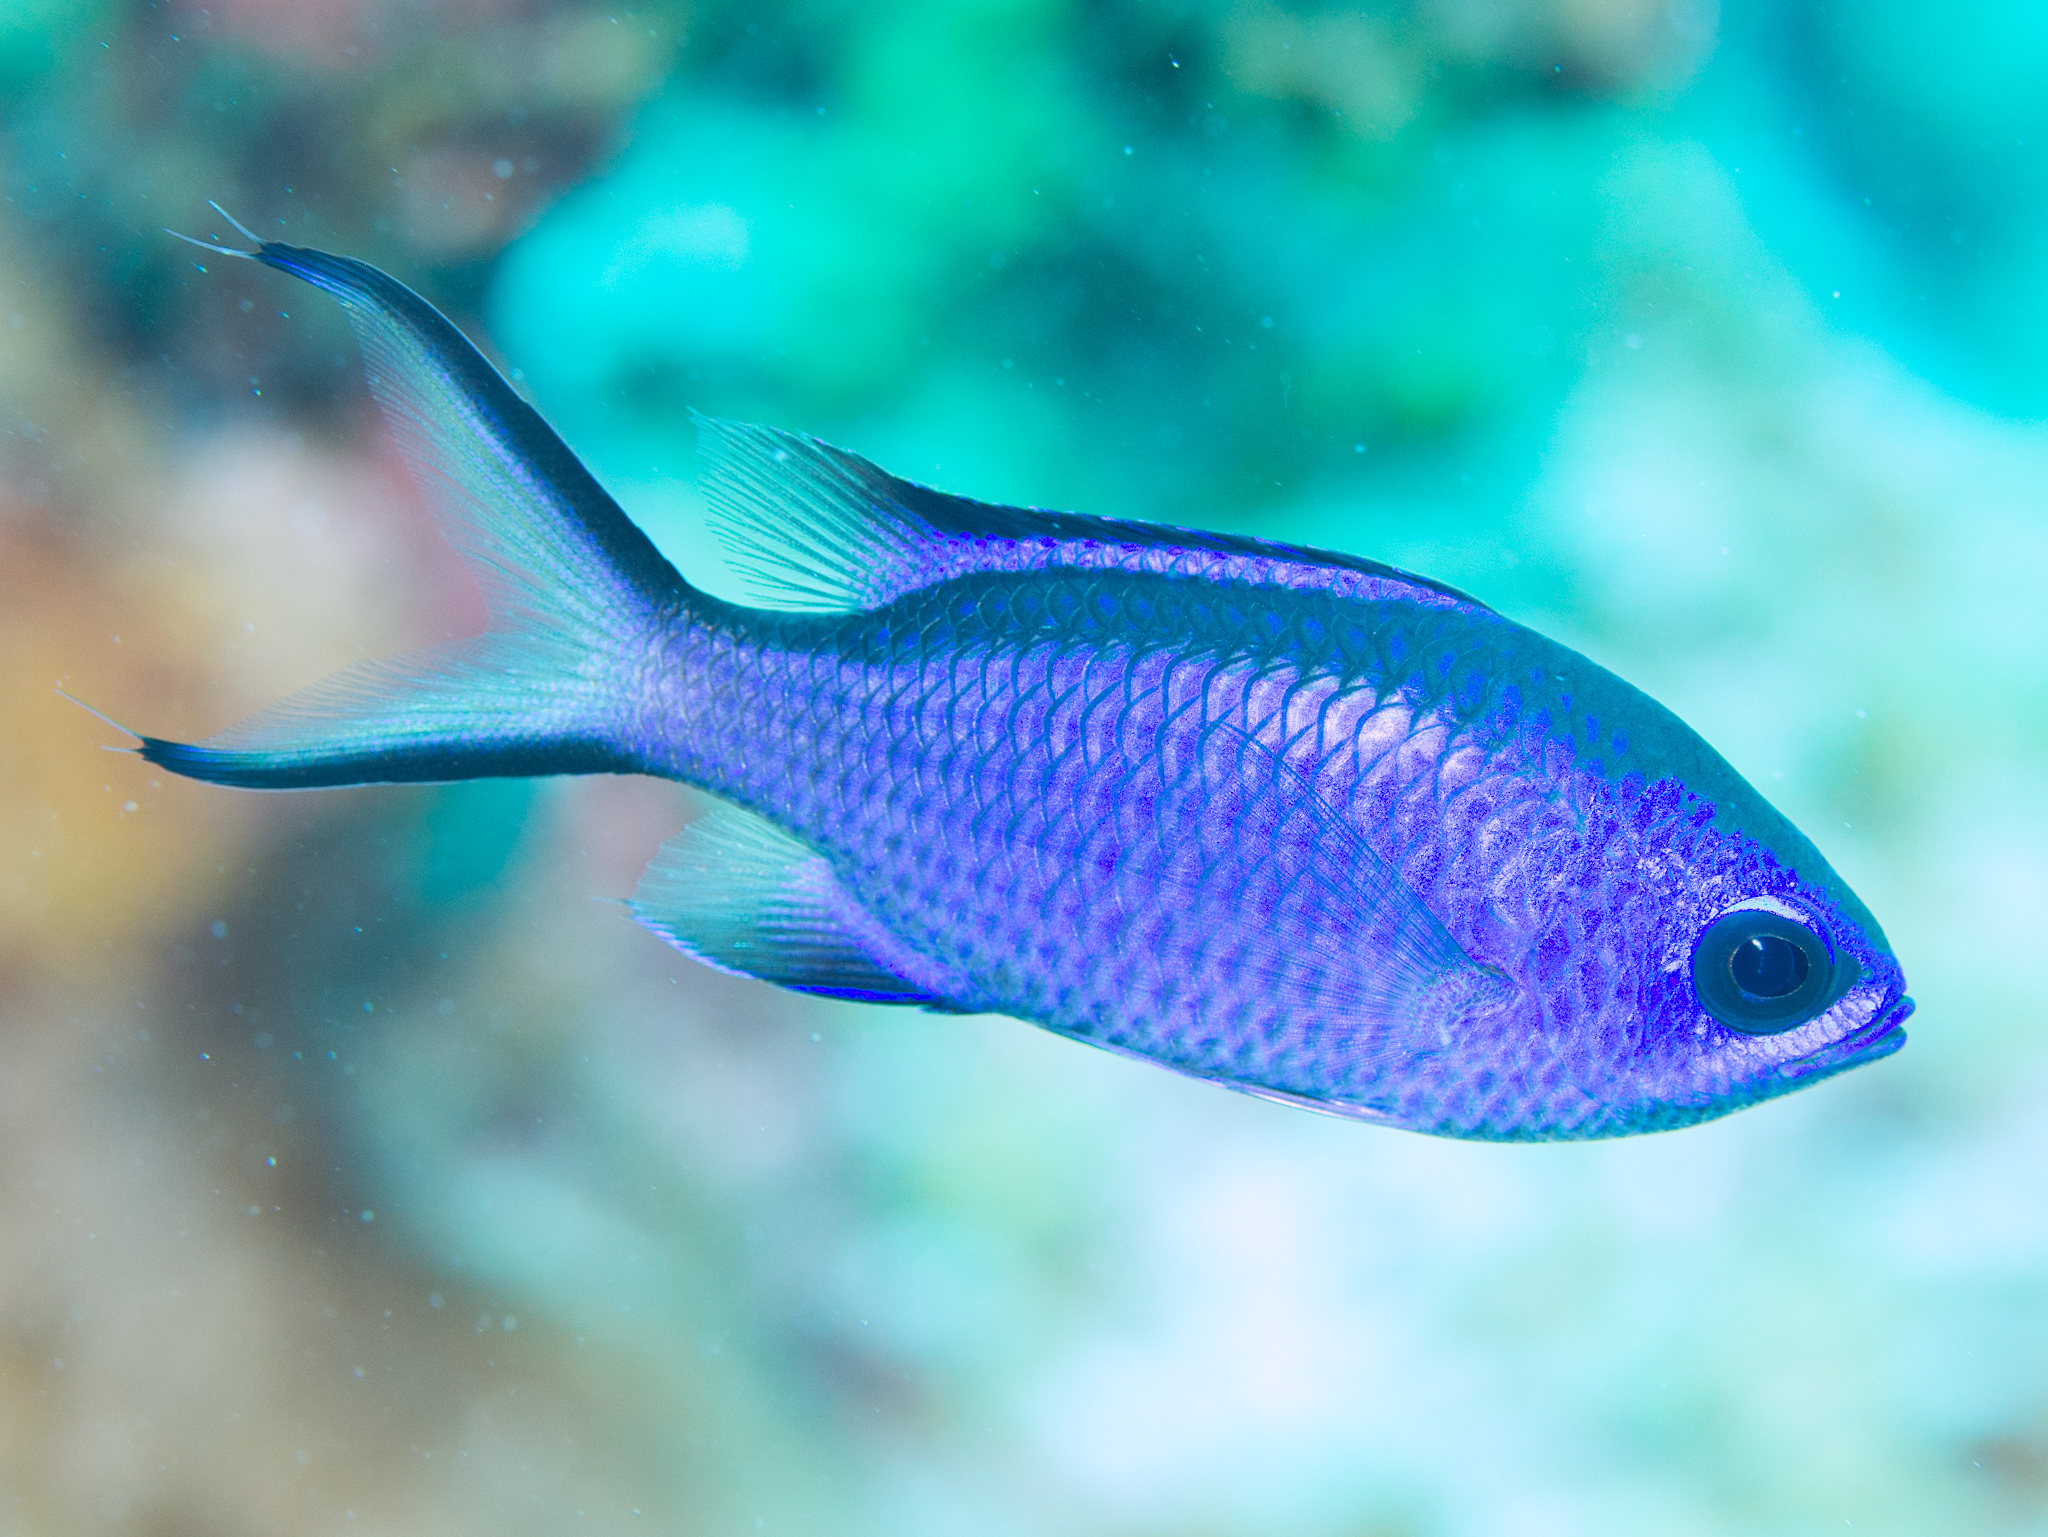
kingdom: Animalia
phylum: Chordata
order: Perciformes
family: Pomacentridae
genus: Chromis
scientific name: Chromis cyanea
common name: Blue chromis
